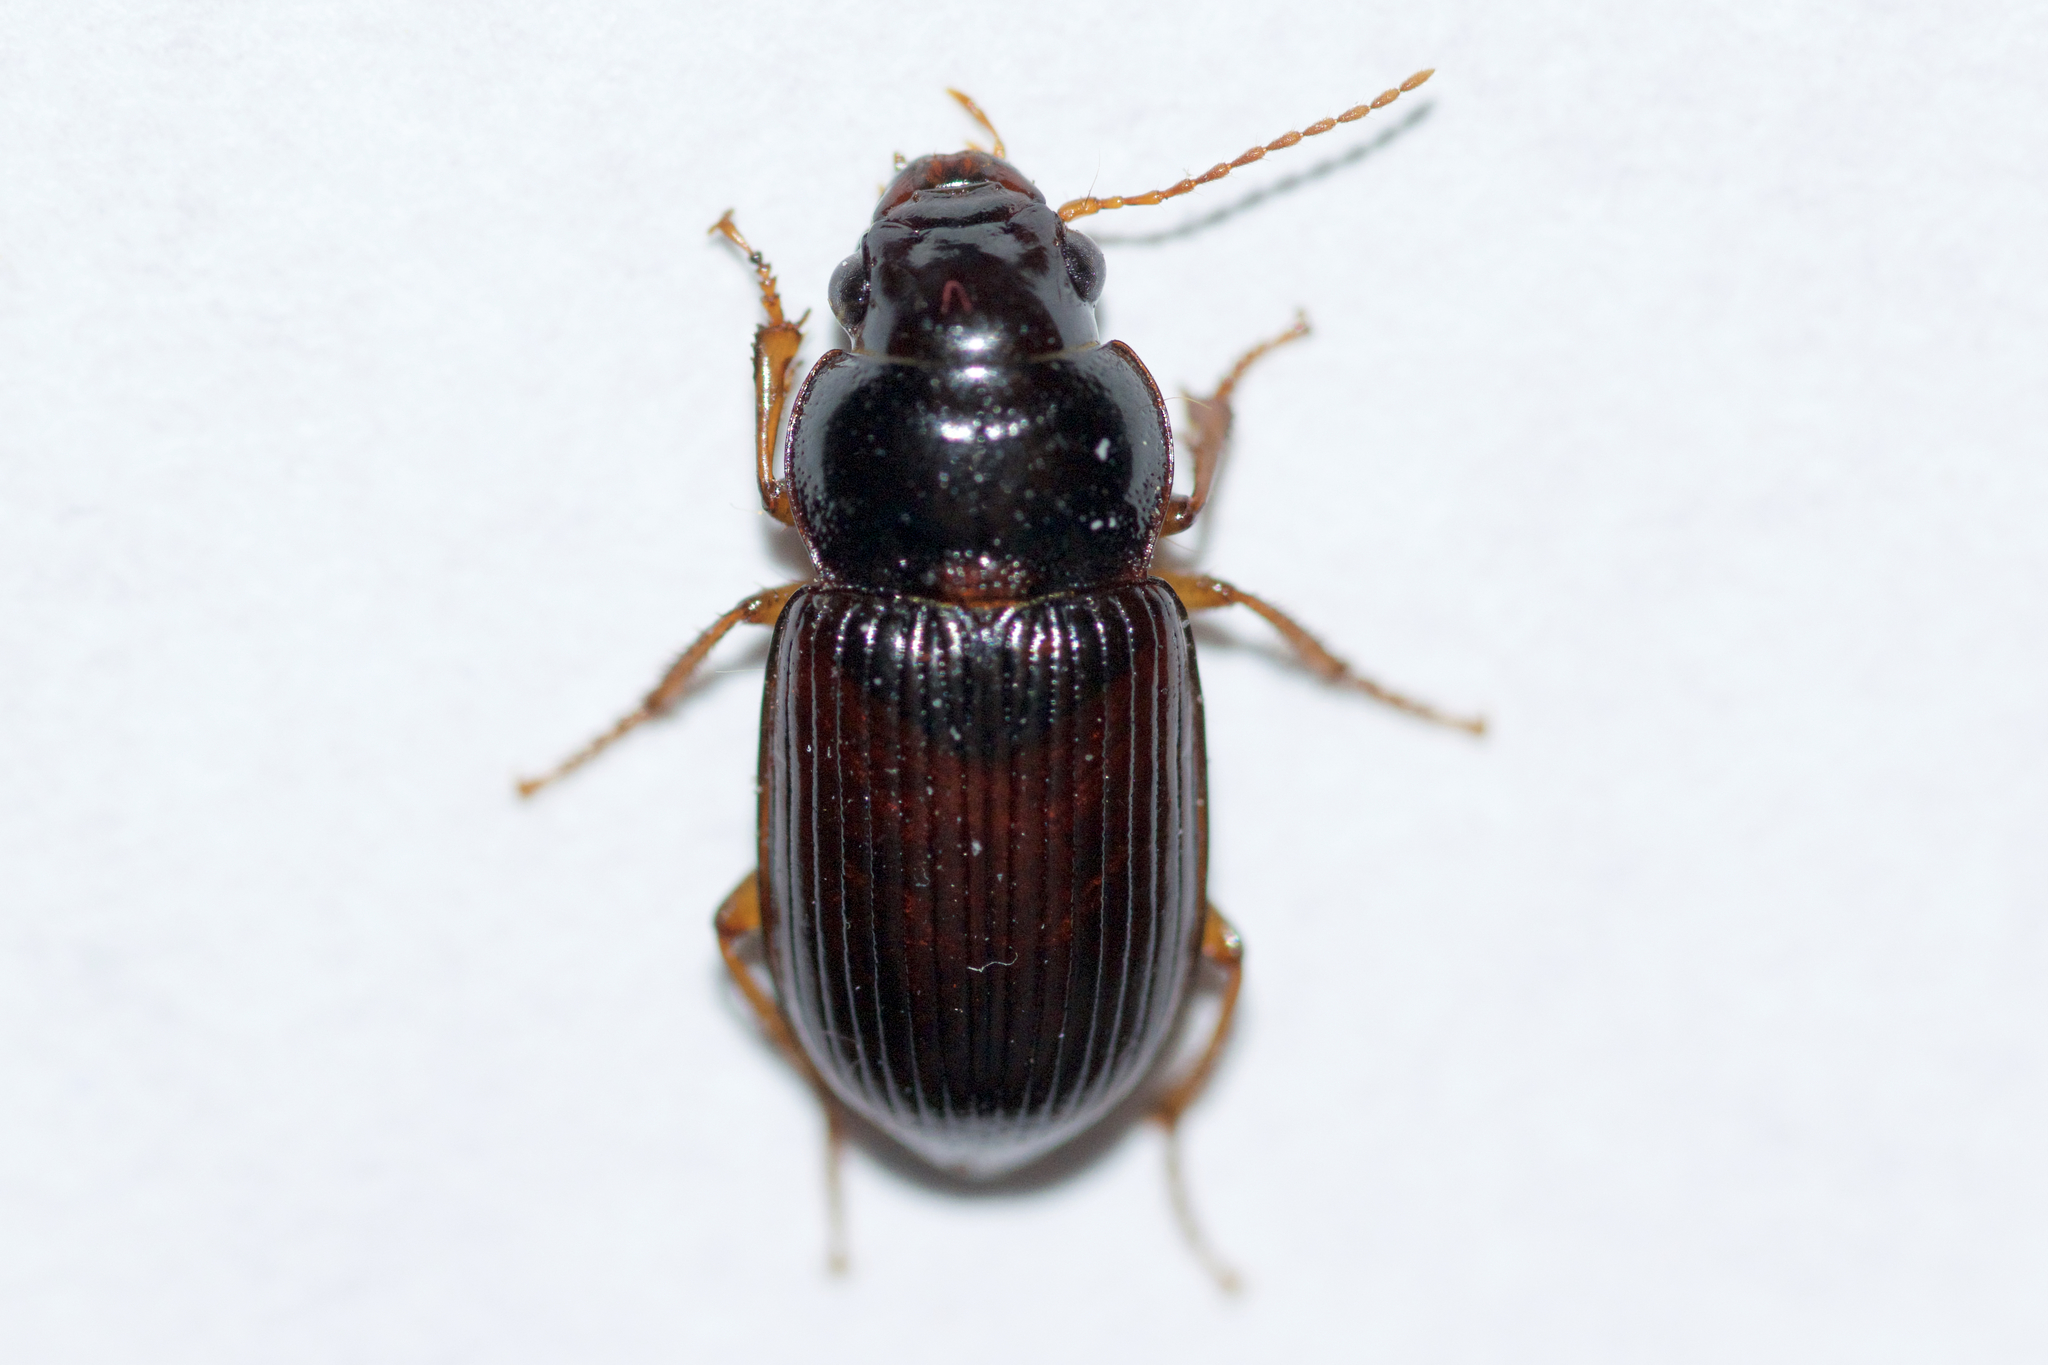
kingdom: Animalia
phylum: Arthropoda
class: Insecta
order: Coleoptera
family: Carabidae
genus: Amara
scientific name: Amara avida
